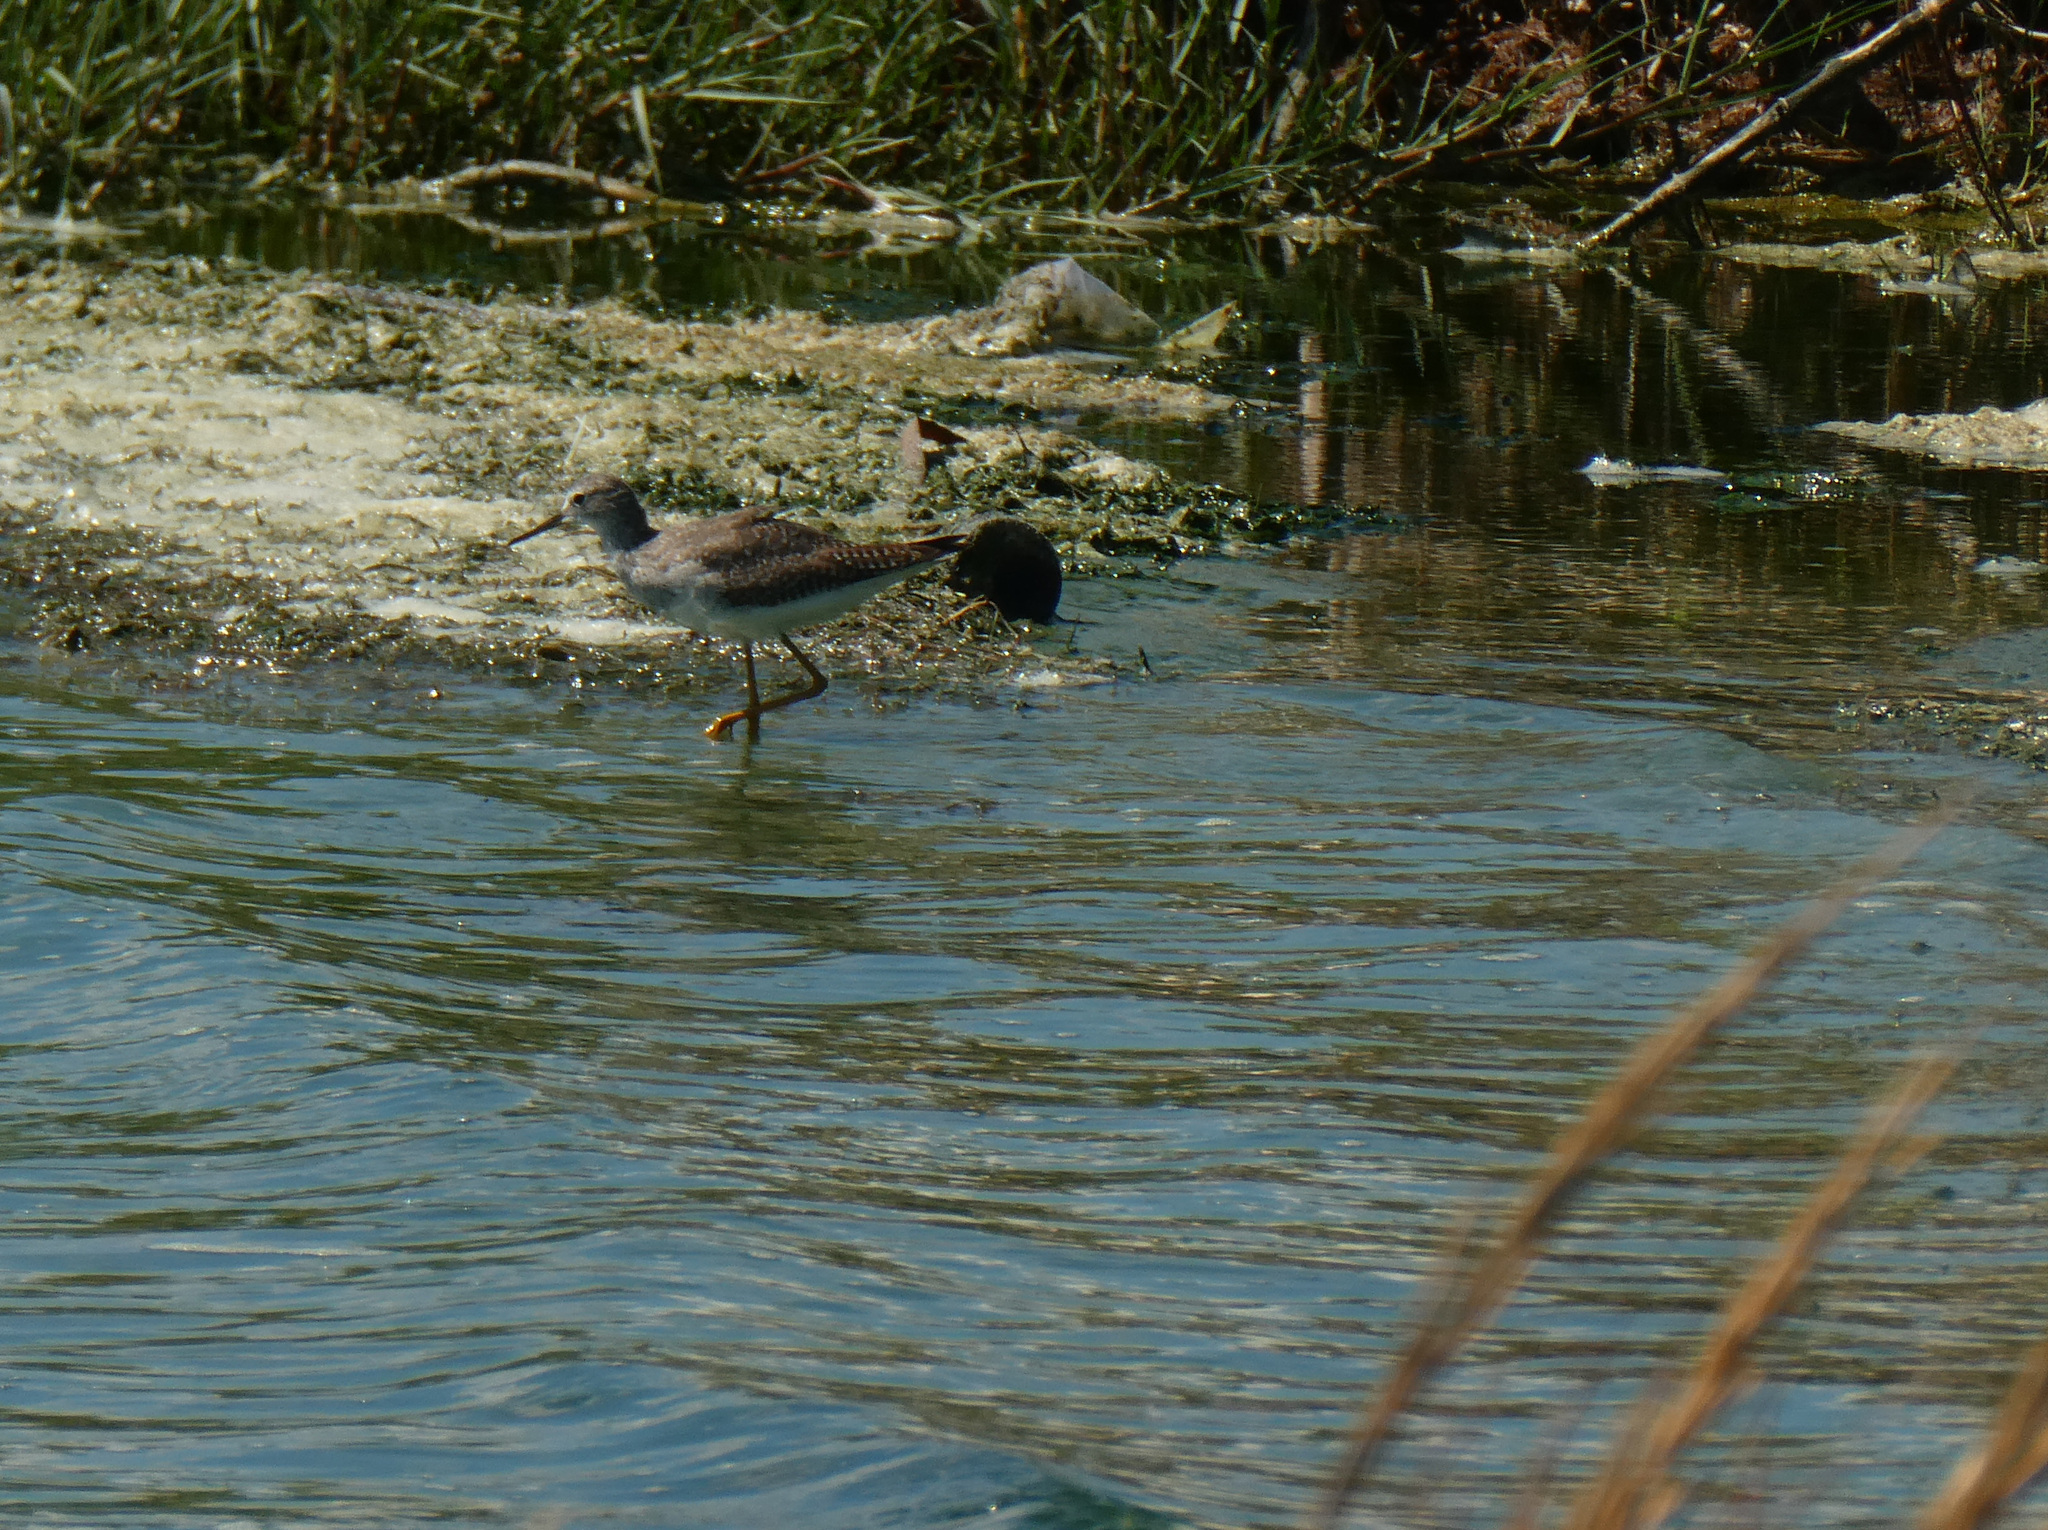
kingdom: Animalia
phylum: Chordata
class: Aves
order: Charadriiformes
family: Scolopacidae
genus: Tringa
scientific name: Tringa flavipes
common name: Lesser yellowlegs
